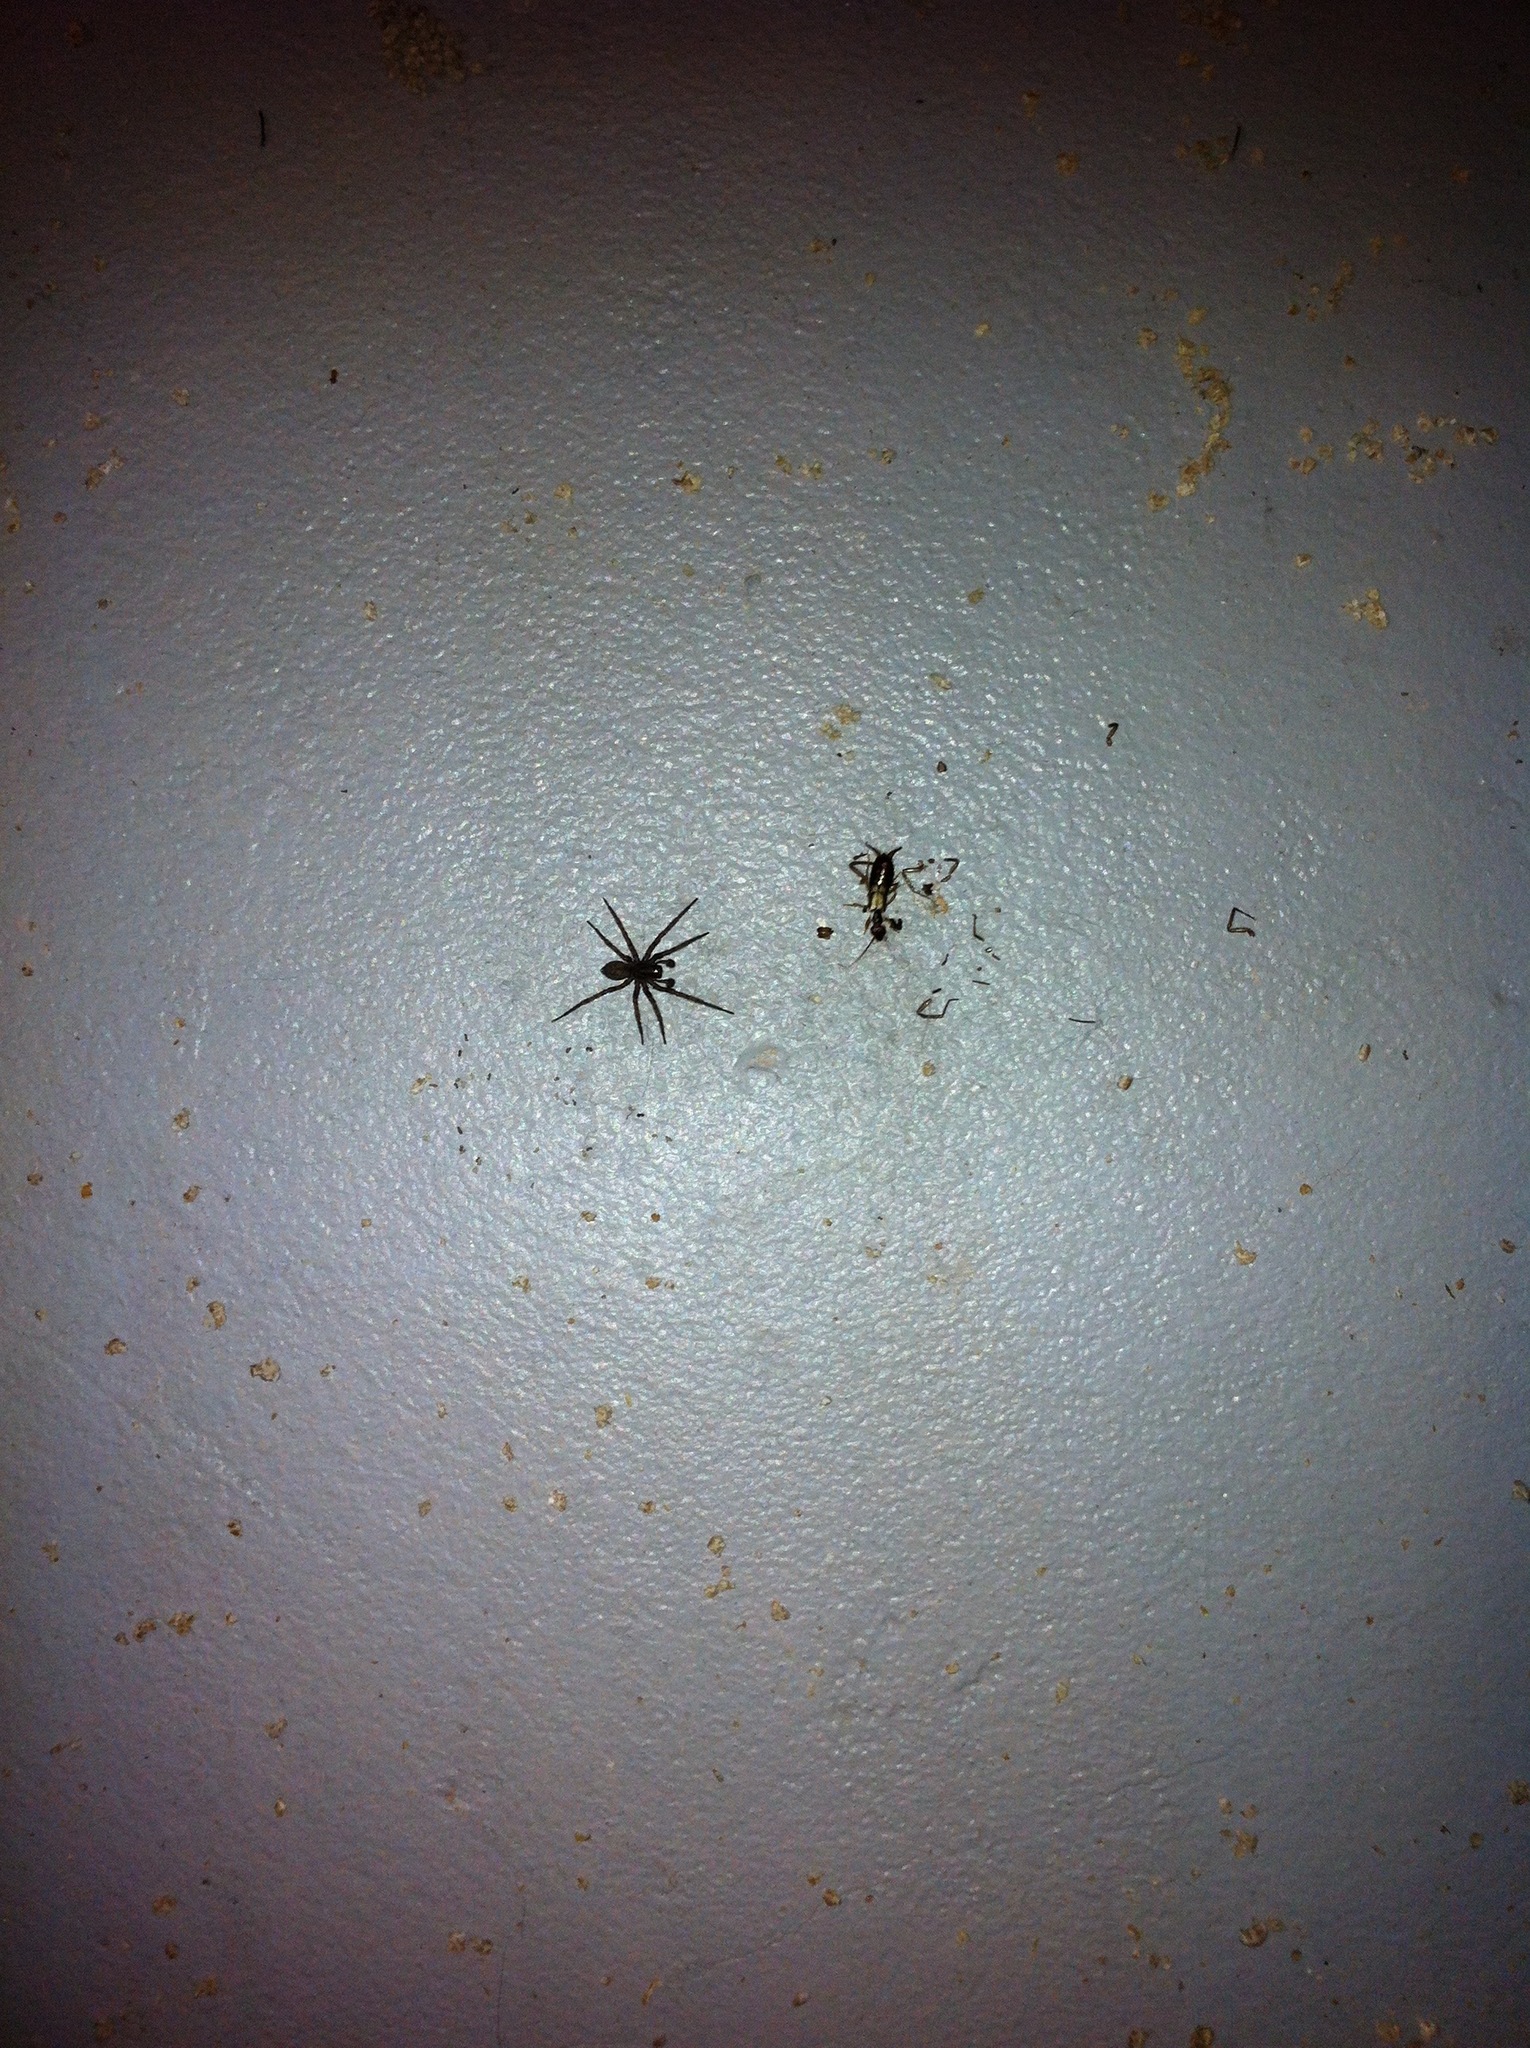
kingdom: Animalia
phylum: Arthropoda
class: Insecta
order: Dermaptera
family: Forficulidae
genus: Forficula
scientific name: Forficula
